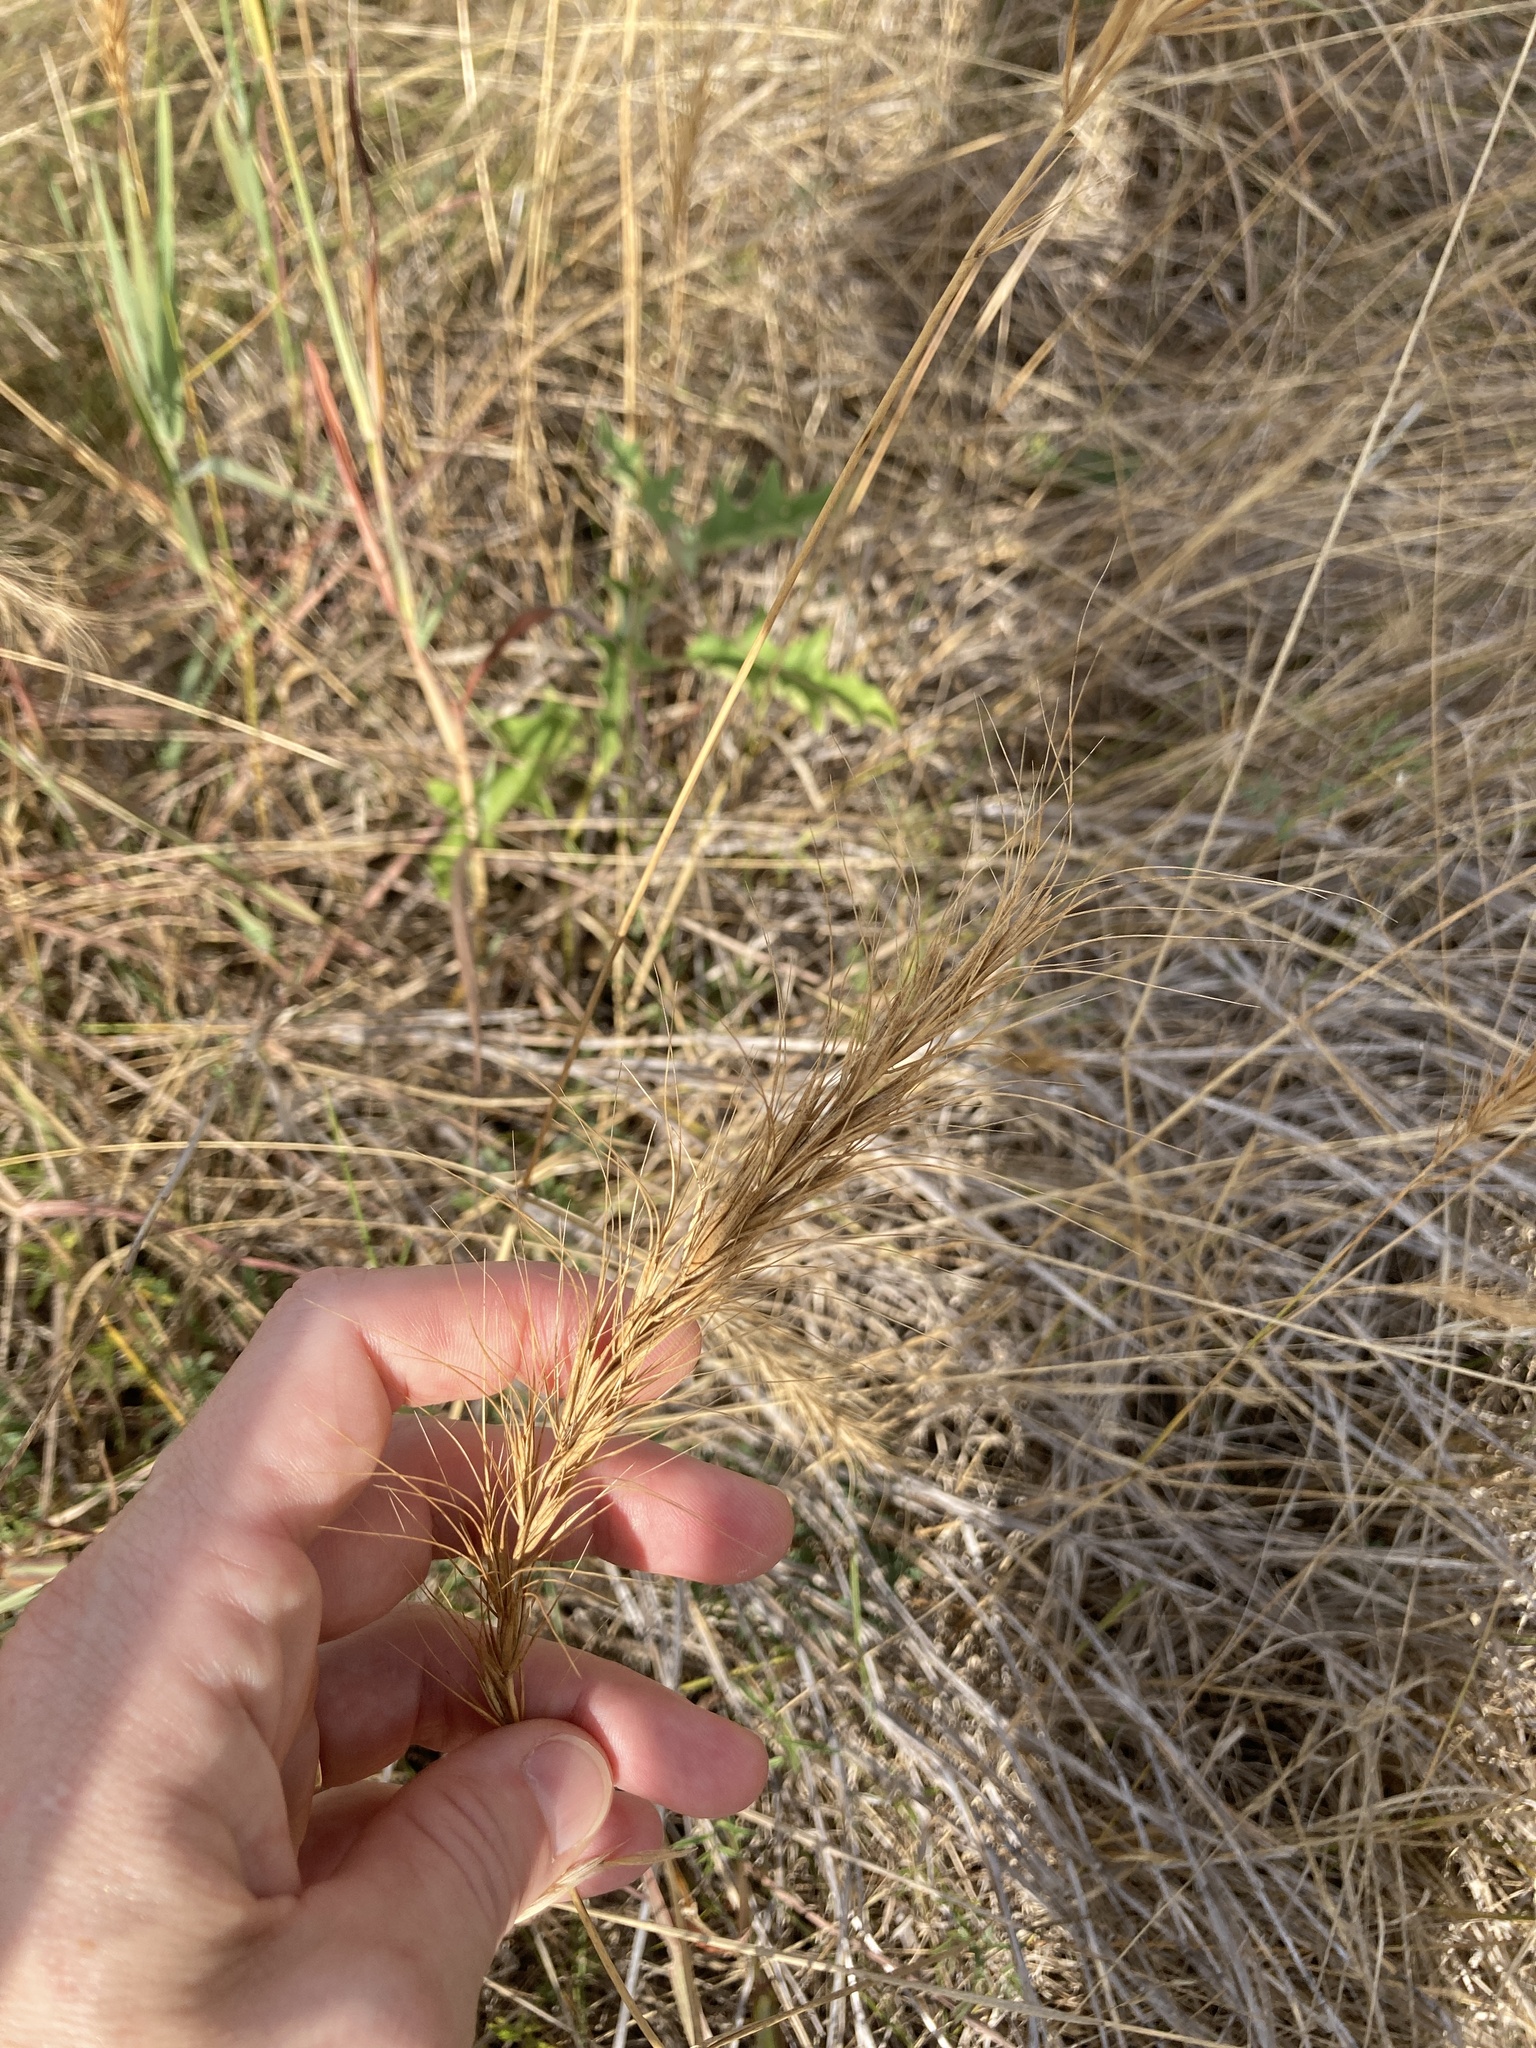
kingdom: Plantae
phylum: Tracheophyta
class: Liliopsida
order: Poales
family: Poaceae
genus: Elymus
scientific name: Elymus canadensis
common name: Canada wild rye
